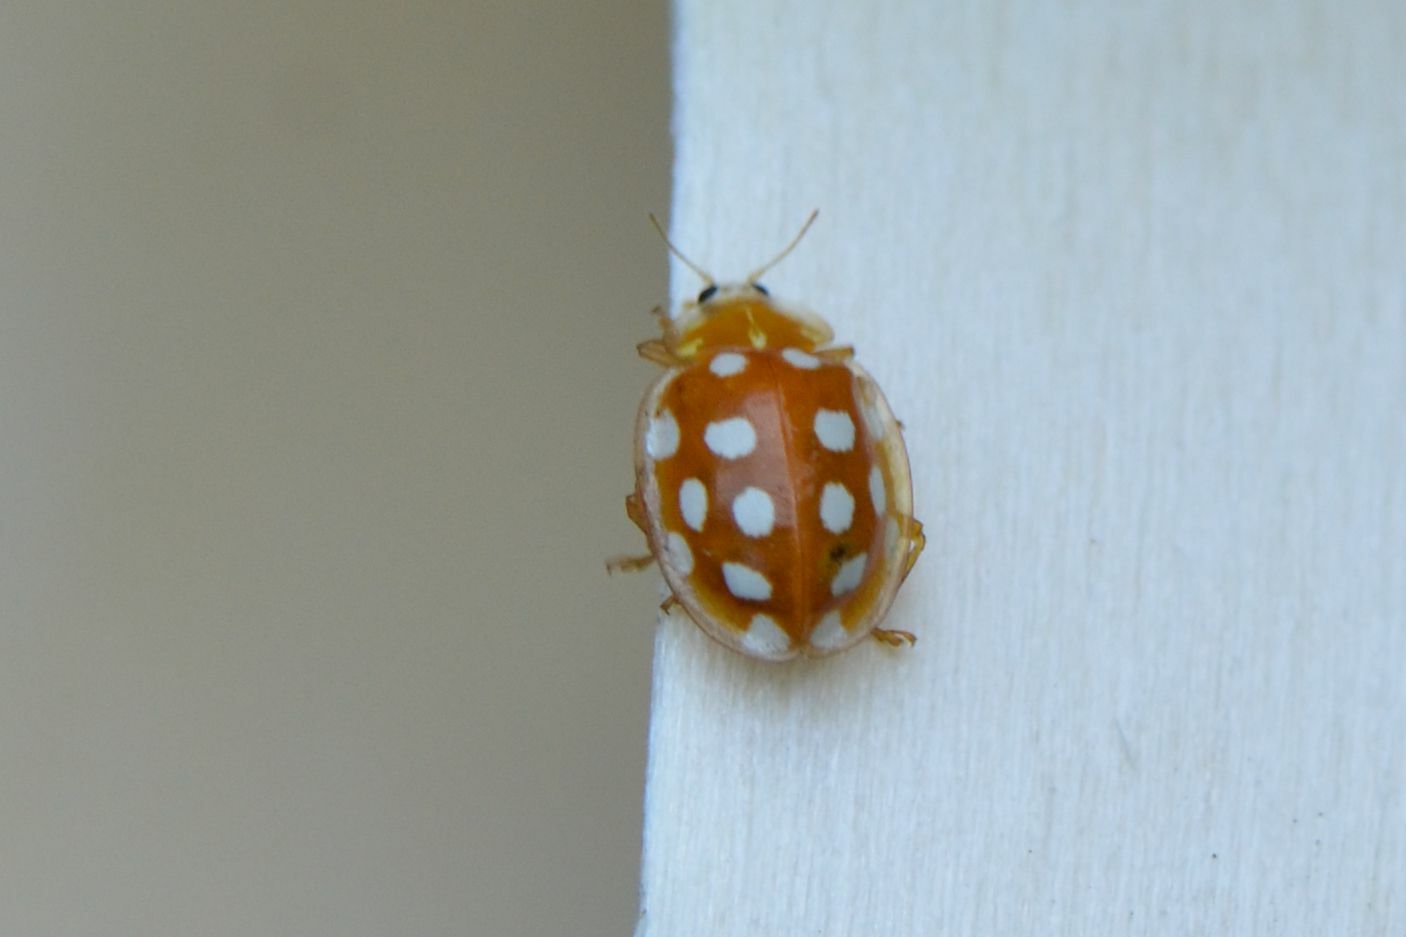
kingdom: Animalia
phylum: Arthropoda
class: Insecta
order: Coleoptera
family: Coccinellidae
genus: Halyzia
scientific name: Halyzia sedecimguttata
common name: Orange ladybird
